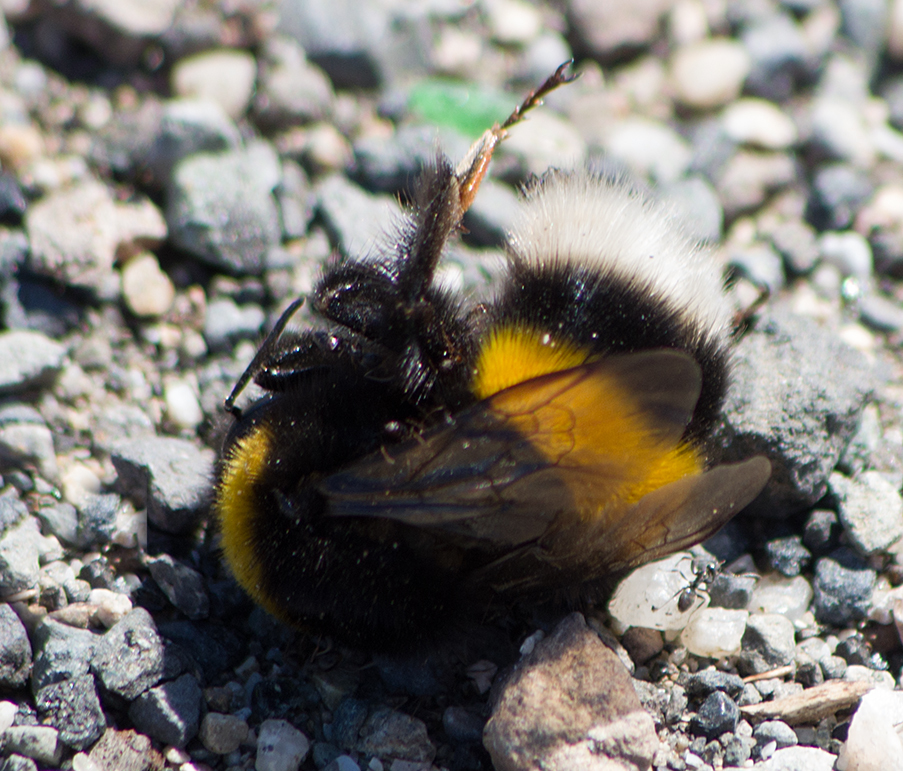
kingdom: Animalia
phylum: Arthropoda
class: Insecta
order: Hymenoptera
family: Apidae
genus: Bombus
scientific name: Bombus terrestris
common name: Buff-tailed bumblebee
